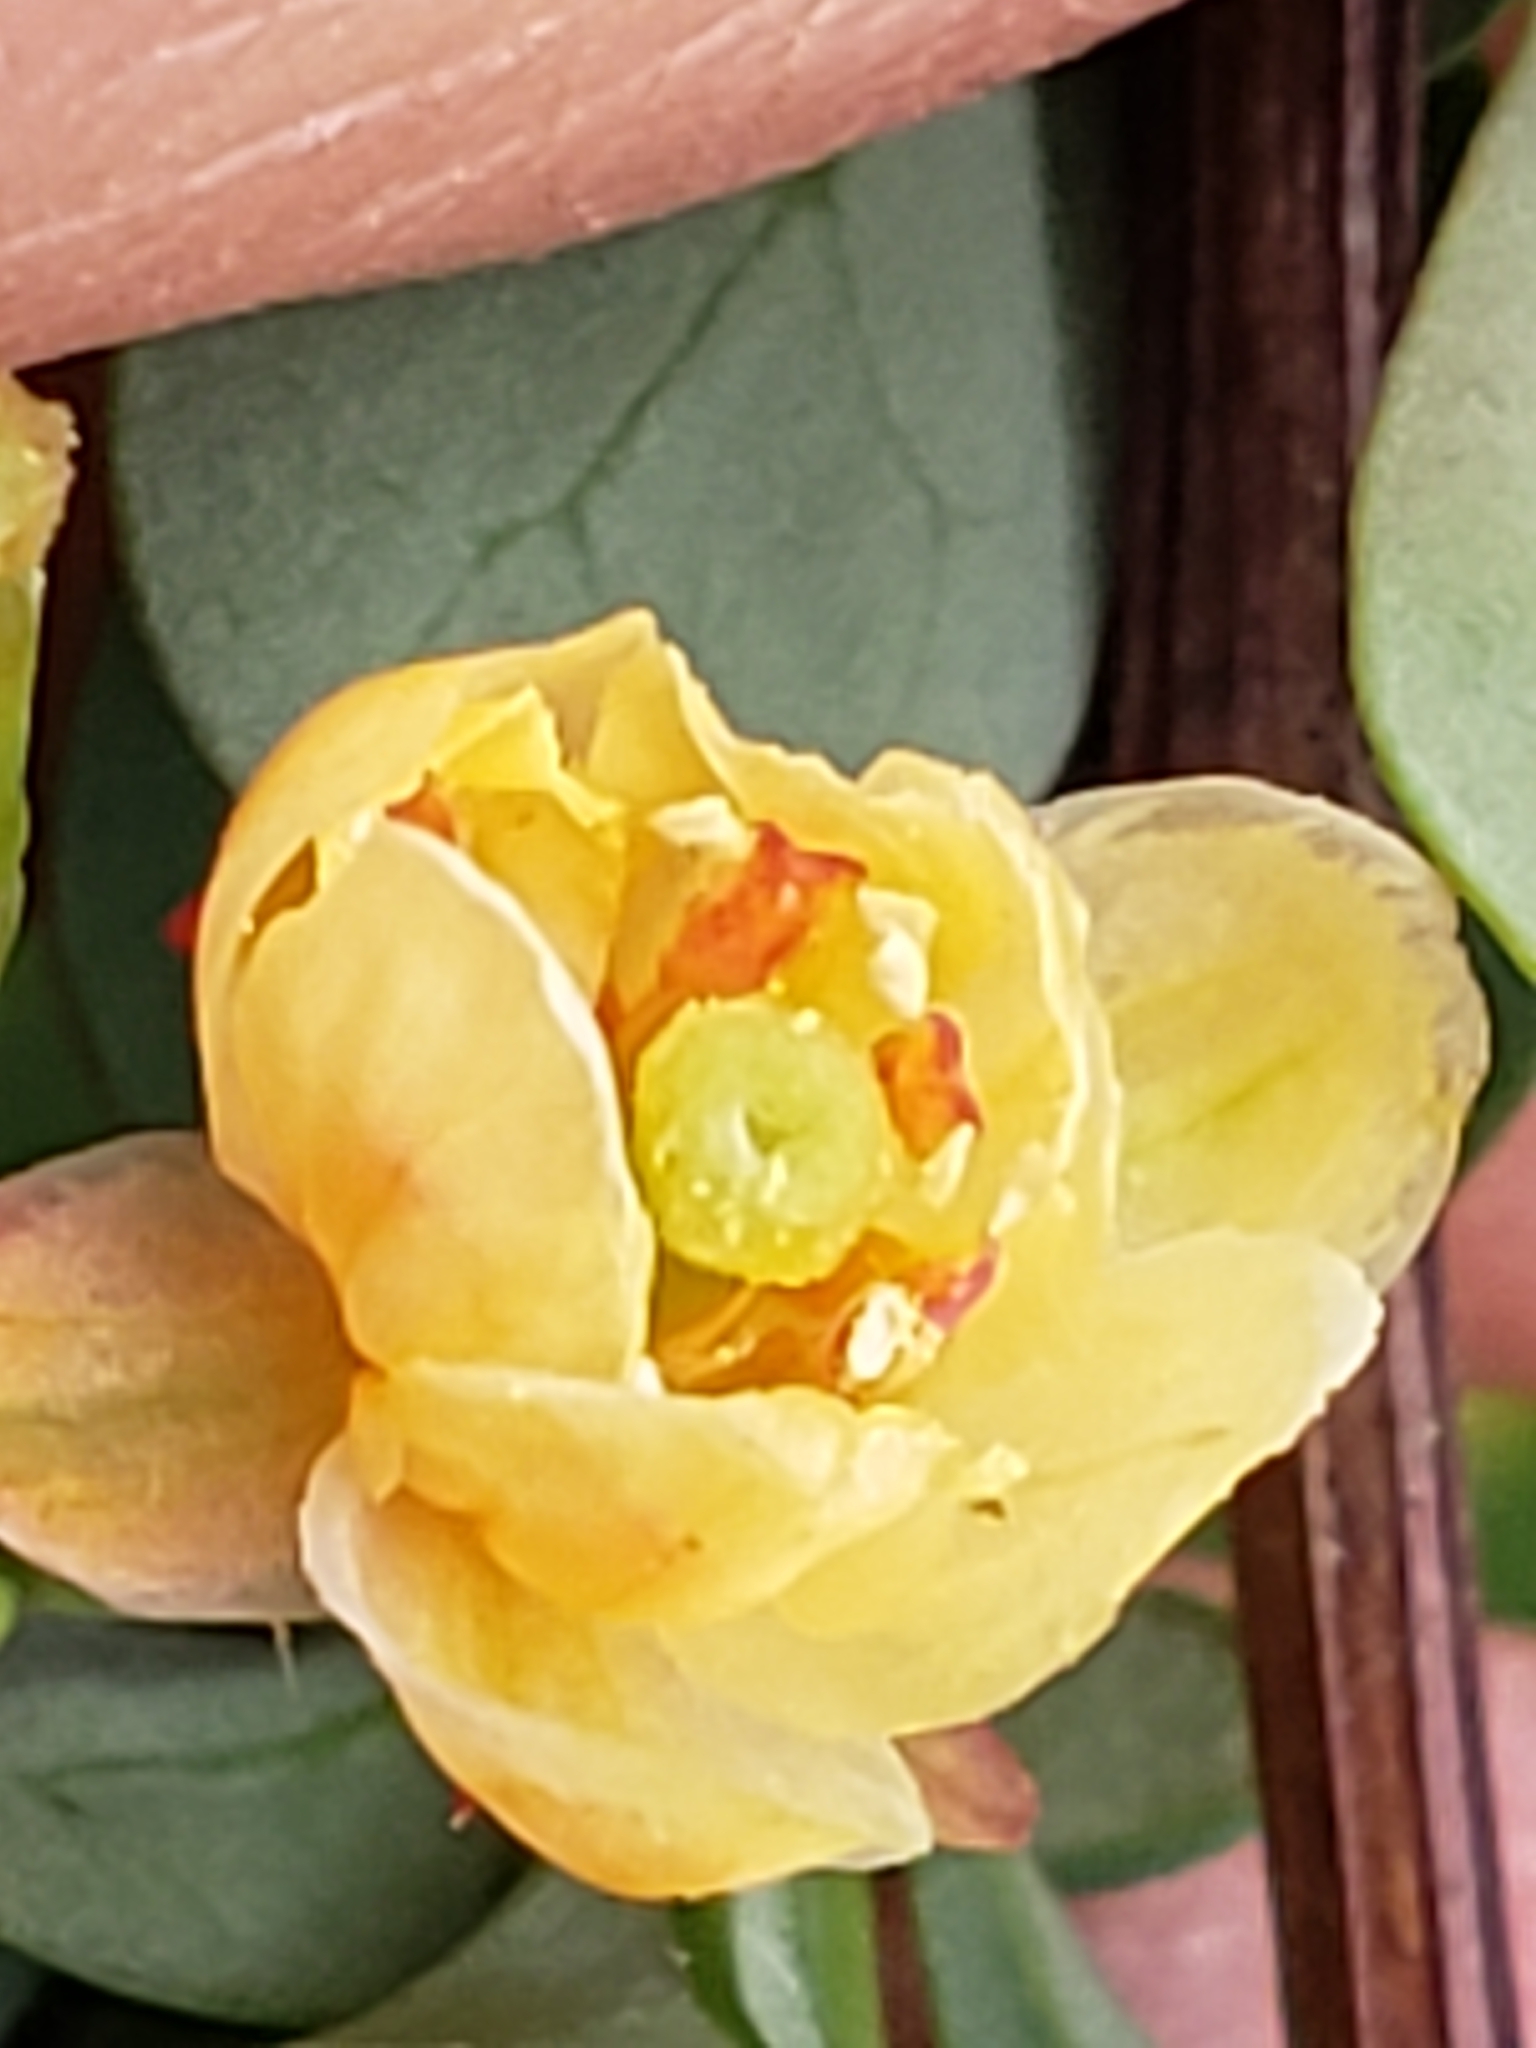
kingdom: Plantae
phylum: Tracheophyta
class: Magnoliopsida
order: Ranunculales
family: Berberidaceae
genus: Berberis
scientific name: Berberis thunbergii
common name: Japanese barberry
